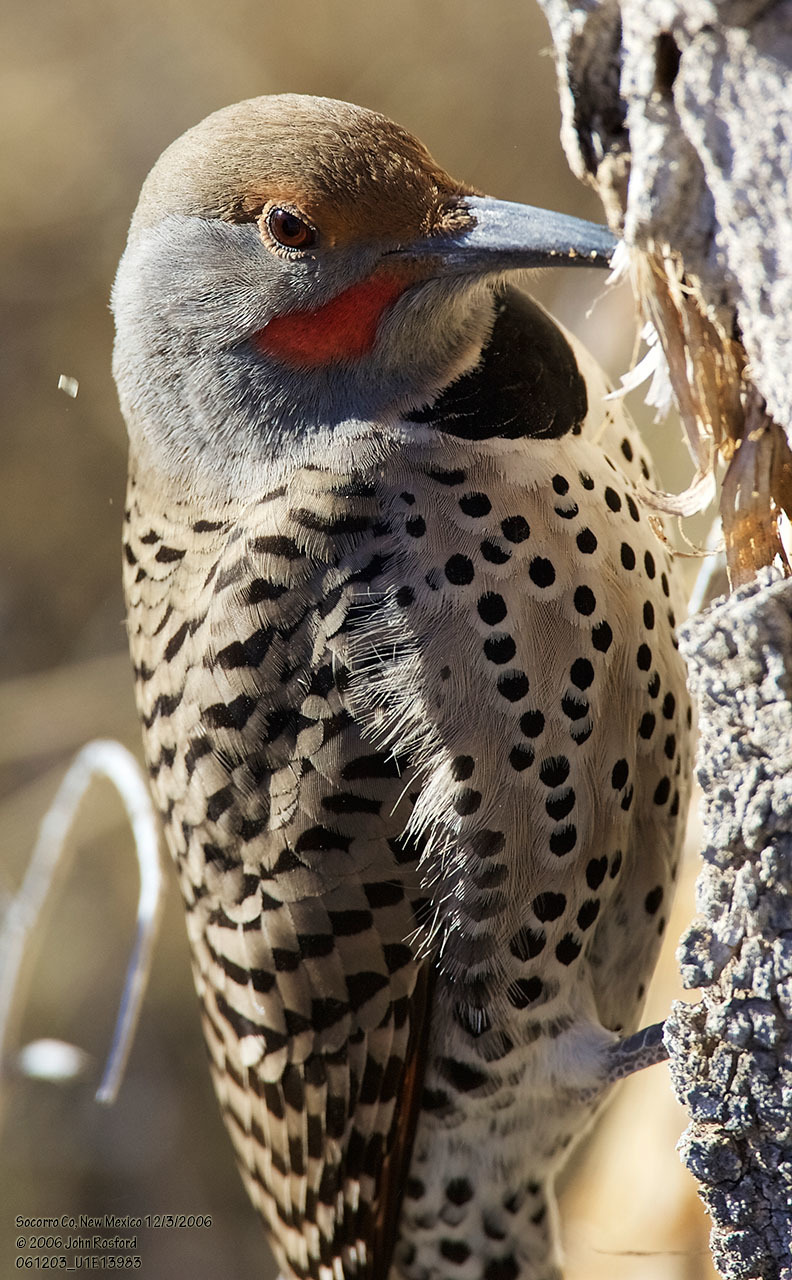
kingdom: Animalia
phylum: Chordata
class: Aves
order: Piciformes
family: Picidae
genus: Colaptes
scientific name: Colaptes auratus
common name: Northern flicker
